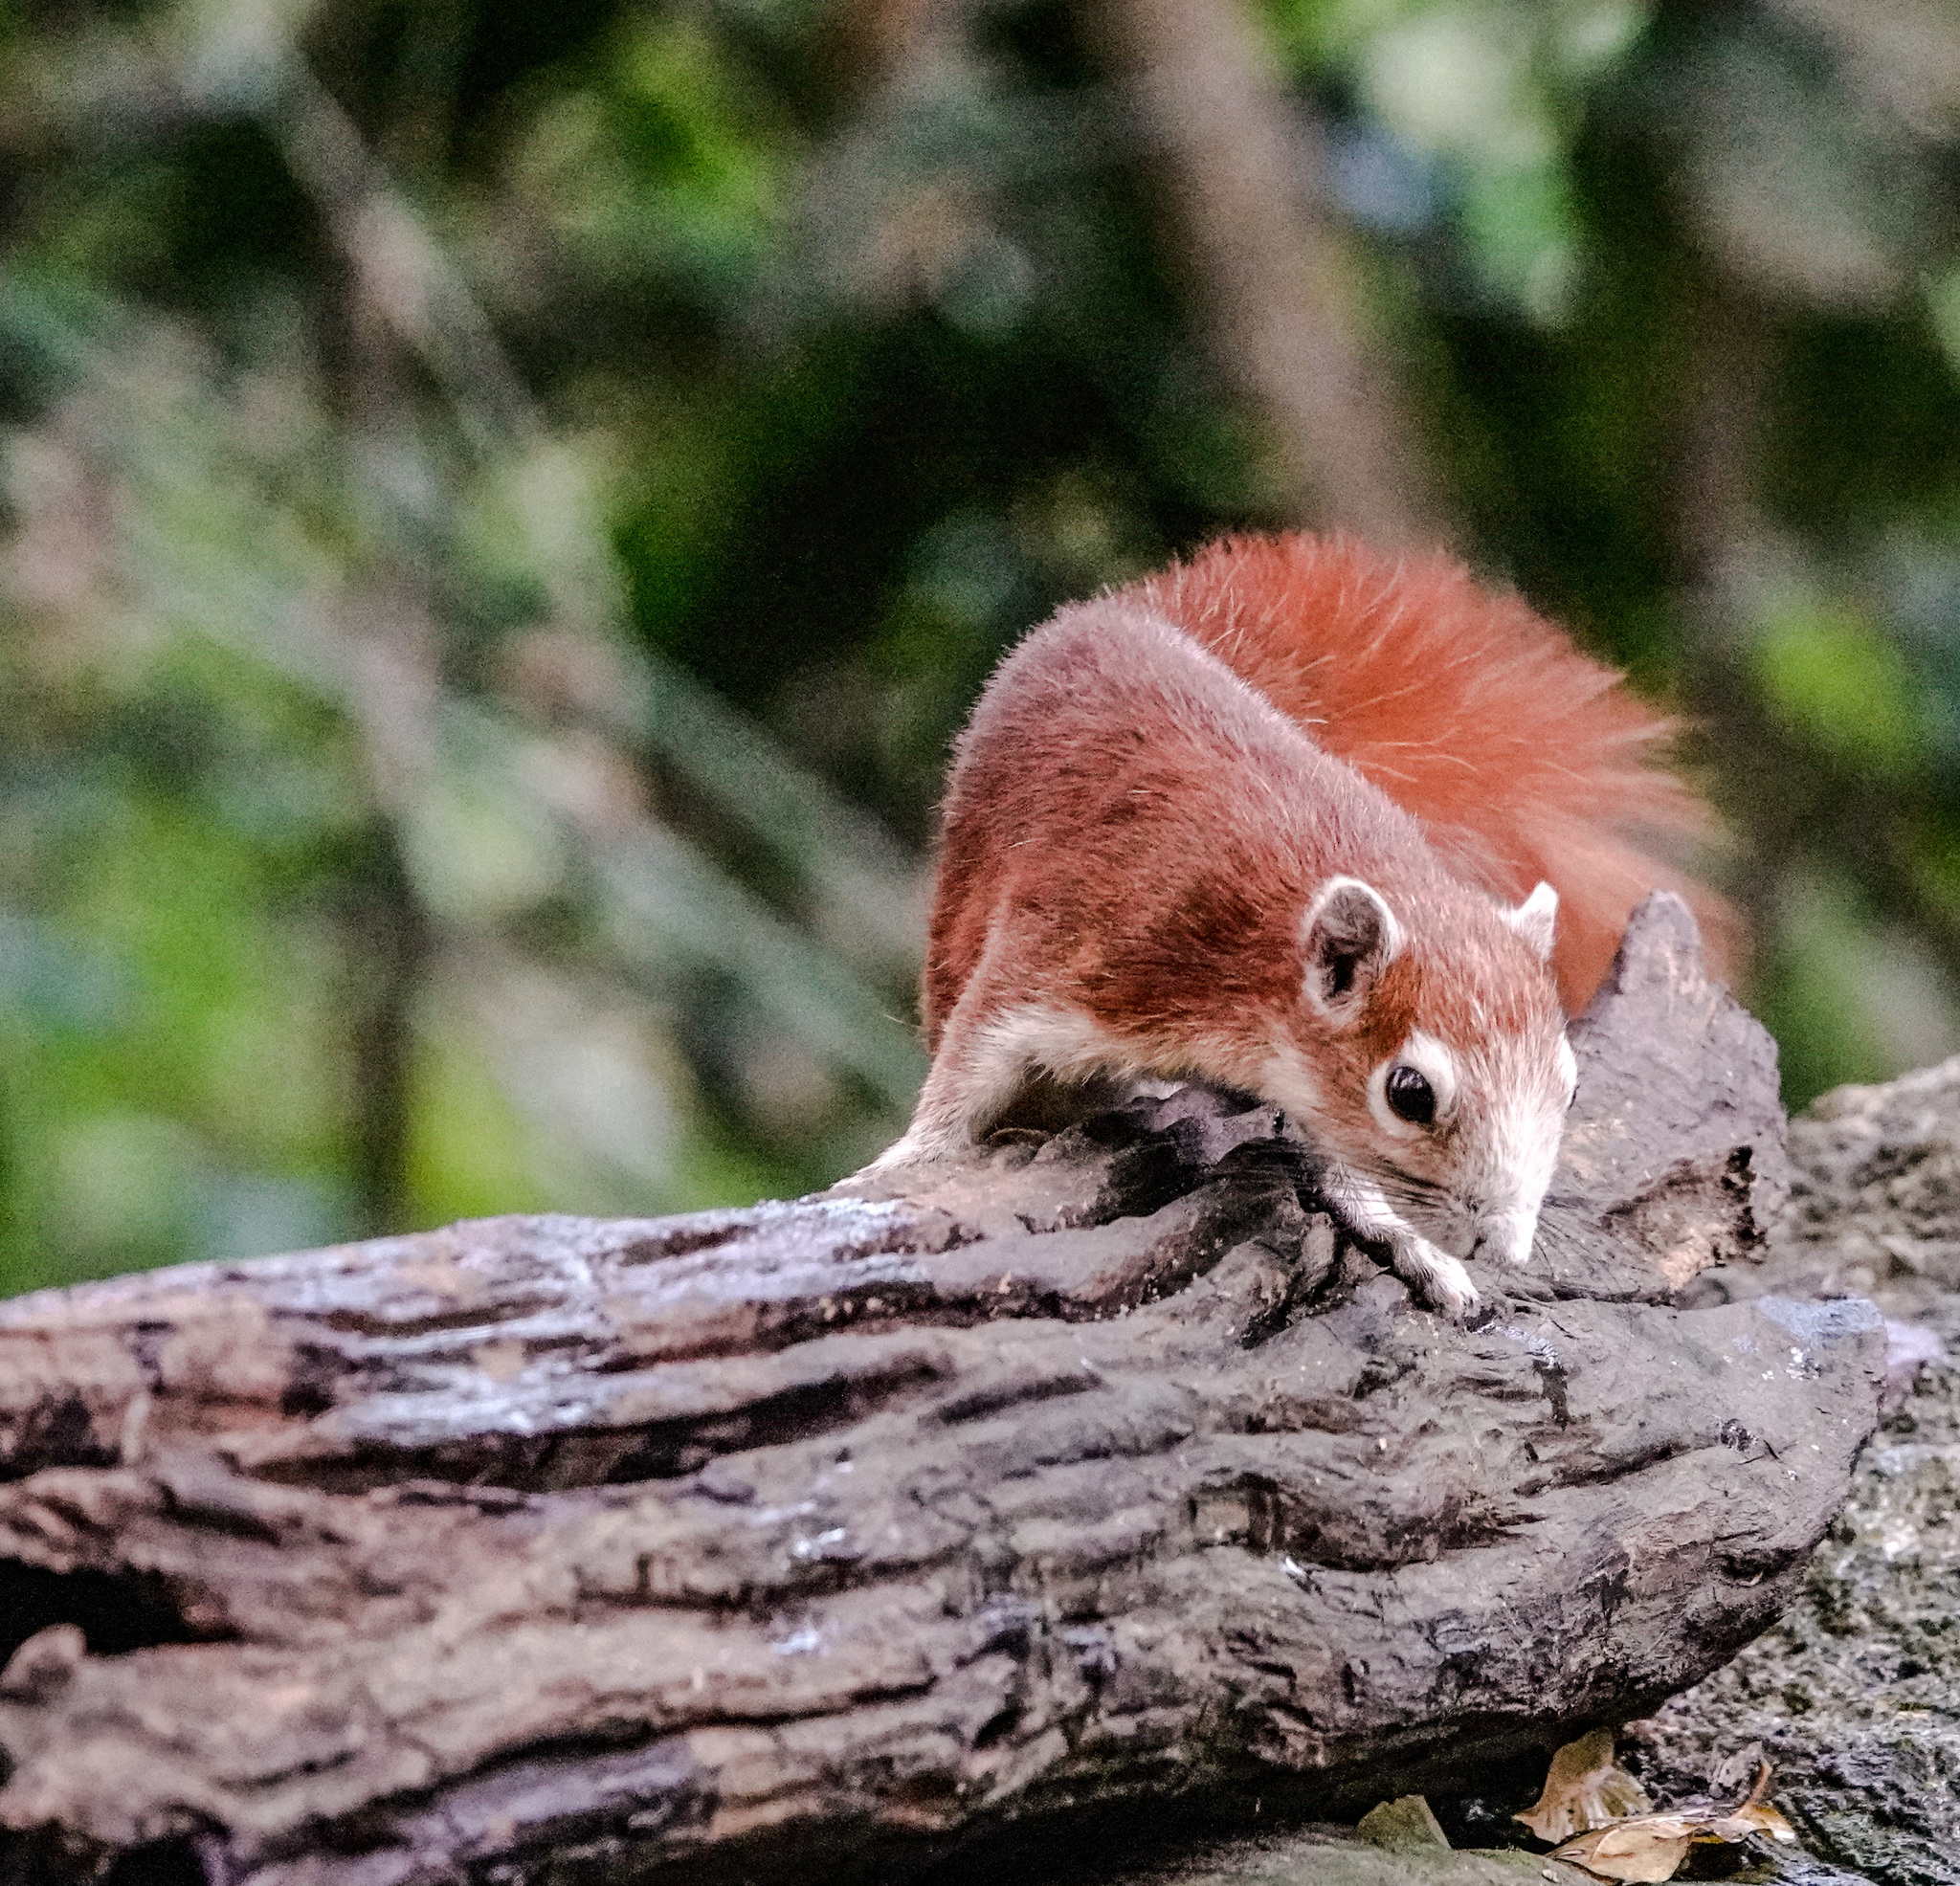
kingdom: Animalia
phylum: Chordata
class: Mammalia
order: Rodentia
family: Sciuridae
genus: Callosciurus
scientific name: Callosciurus finlaysonii
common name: Finlayson's squirrel
